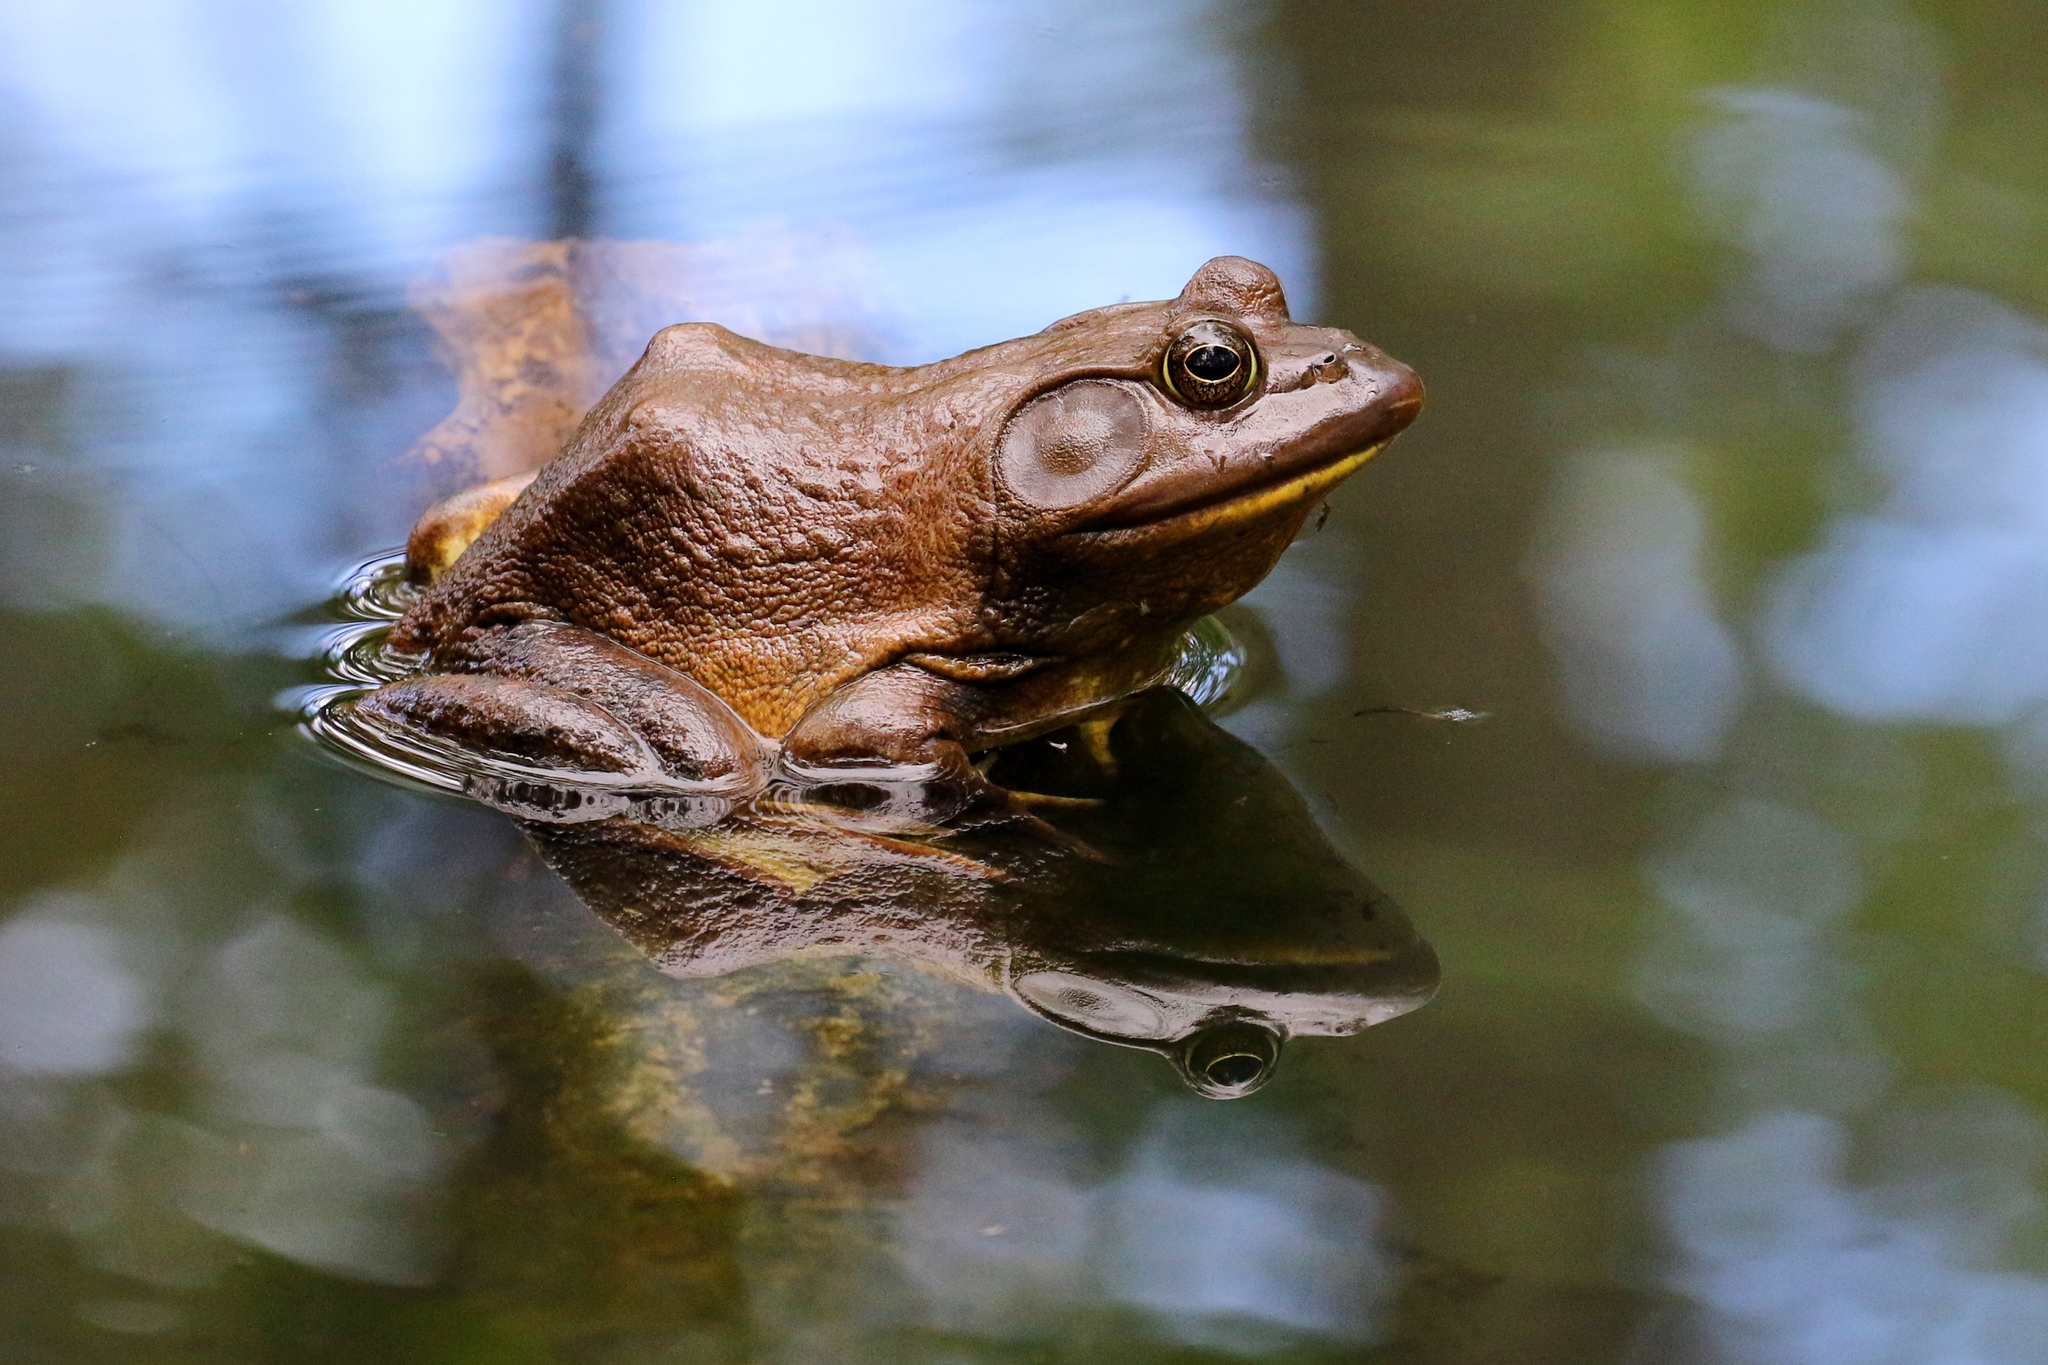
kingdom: Animalia
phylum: Chordata
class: Amphibia
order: Anura
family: Ranidae
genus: Lithobates
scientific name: Lithobates catesbeianus
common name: American bullfrog
